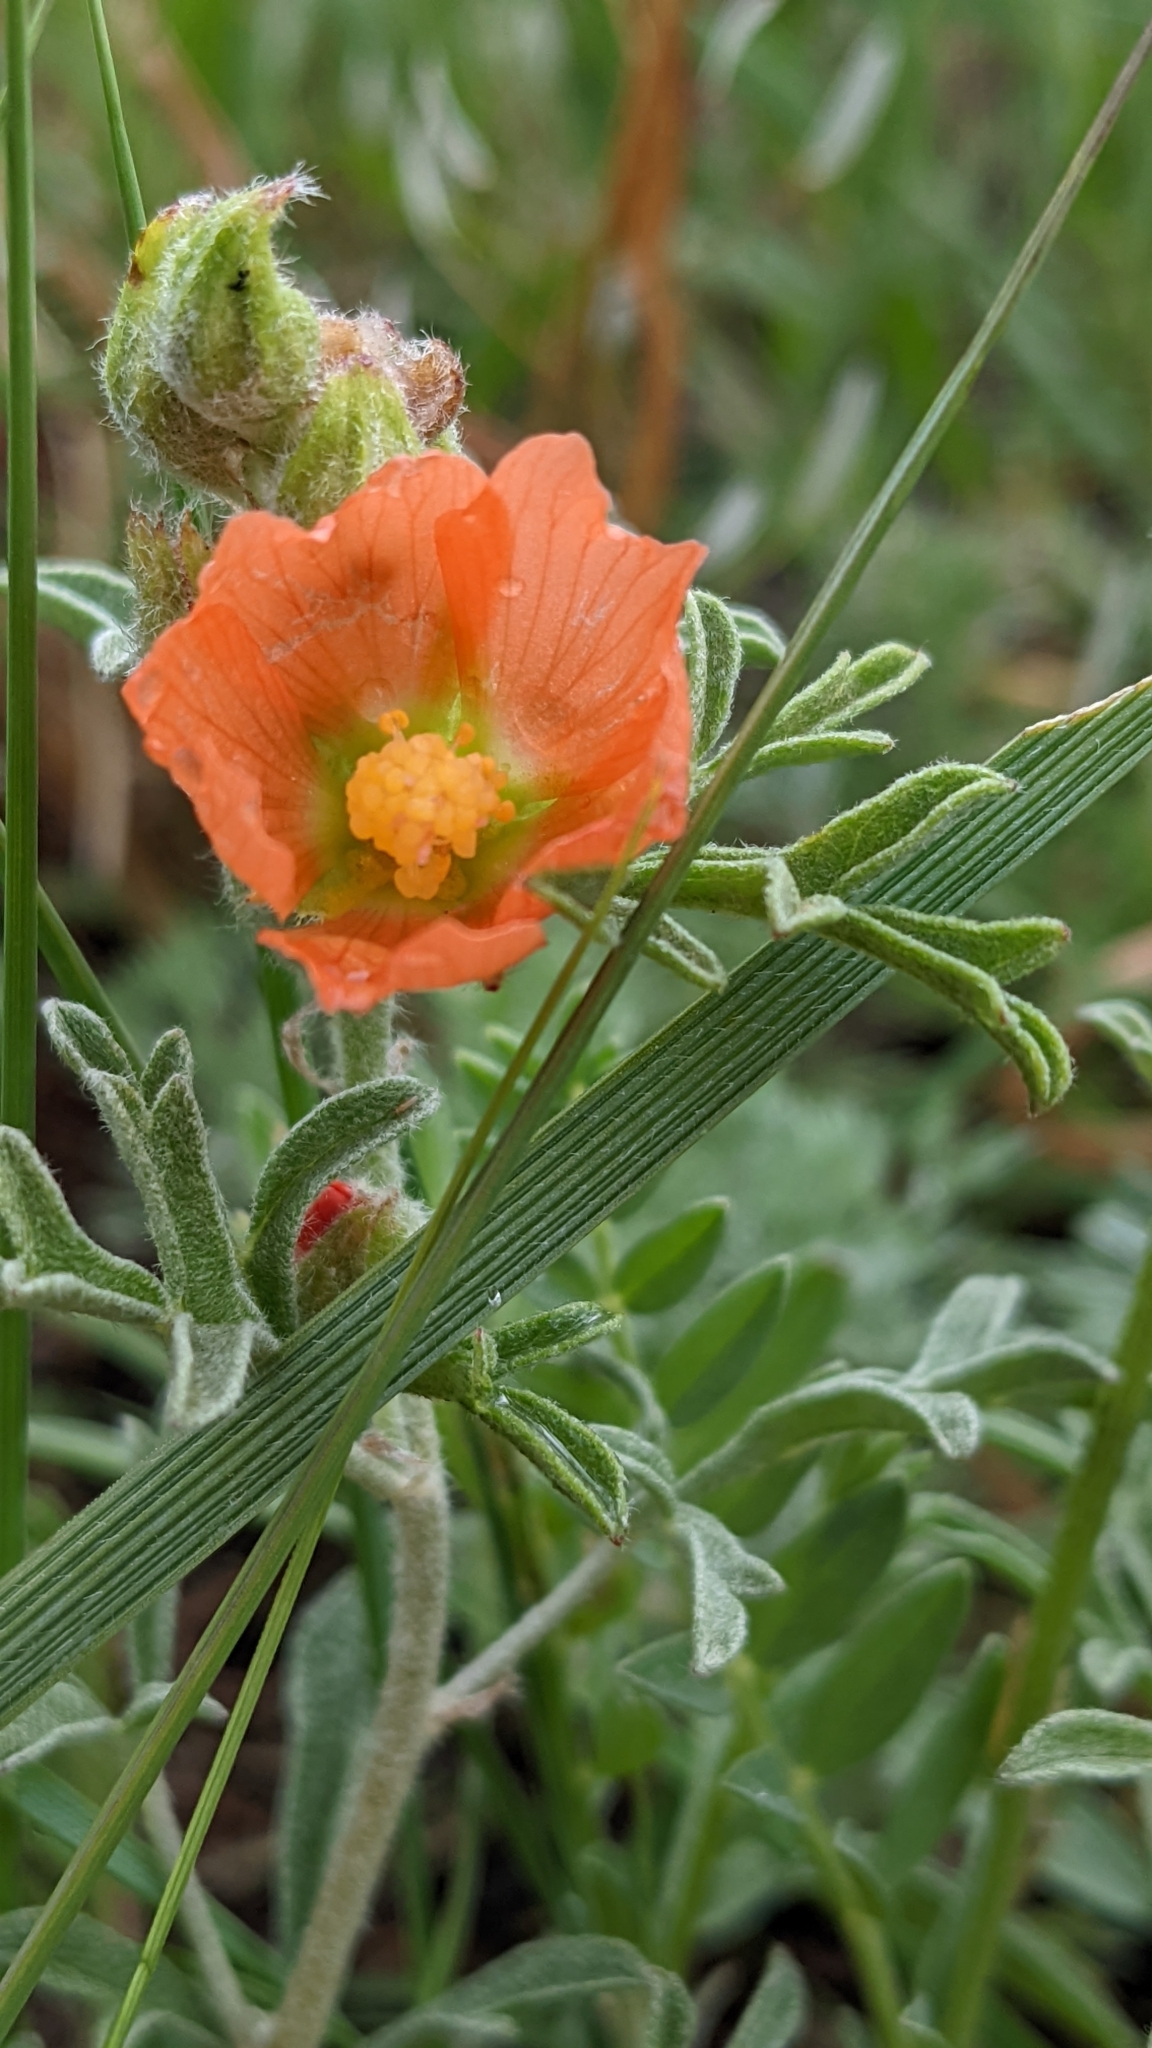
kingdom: Plantae
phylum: Tracheophyta
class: Magnoliopsida
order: Malvales
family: Malvaceae
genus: Sphaeralcea
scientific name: Sphaeralcea coccinea
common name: Moss-rose
